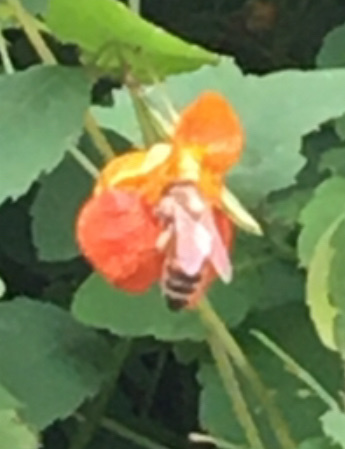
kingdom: Animalia
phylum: Arthropoda
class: Insecta
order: Hymenoptera
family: Apidae
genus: Apis
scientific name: Apis mellifera
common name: Honey bee
